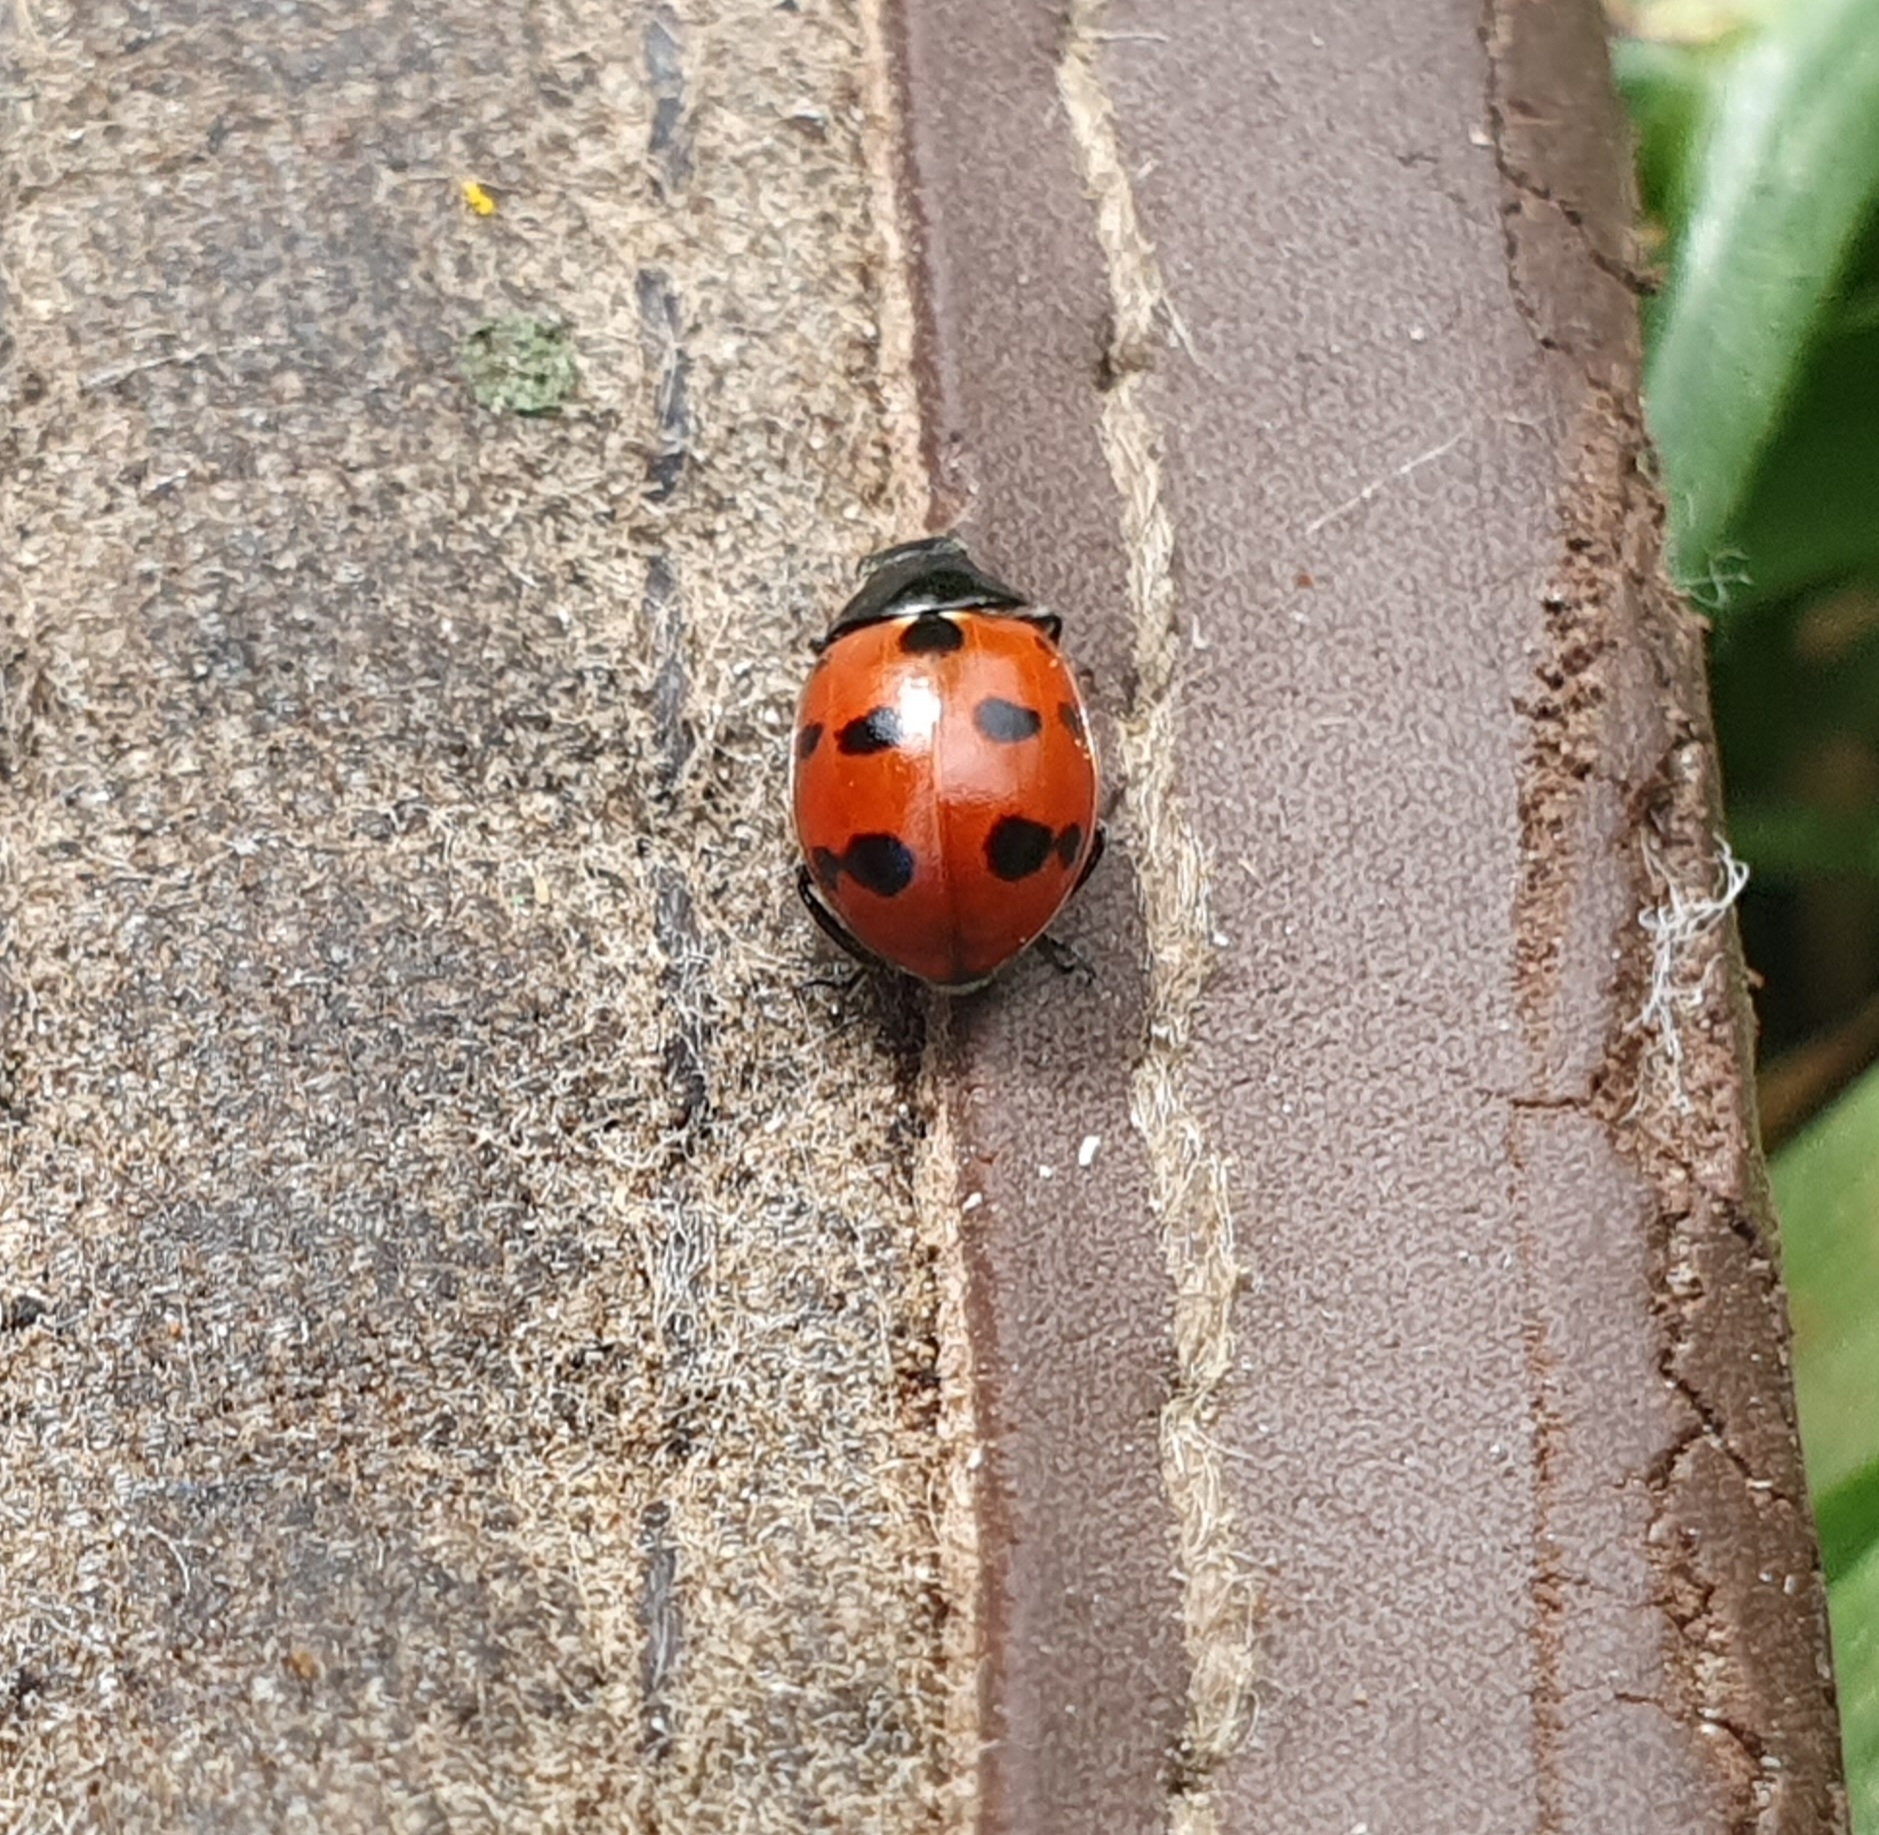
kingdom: Animalia
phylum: Arthropoda
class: Insecta
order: Coleoptera
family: Coccinellidae
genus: Coccinella
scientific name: Coccinella undecimpunctata
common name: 11-spot ladybird
